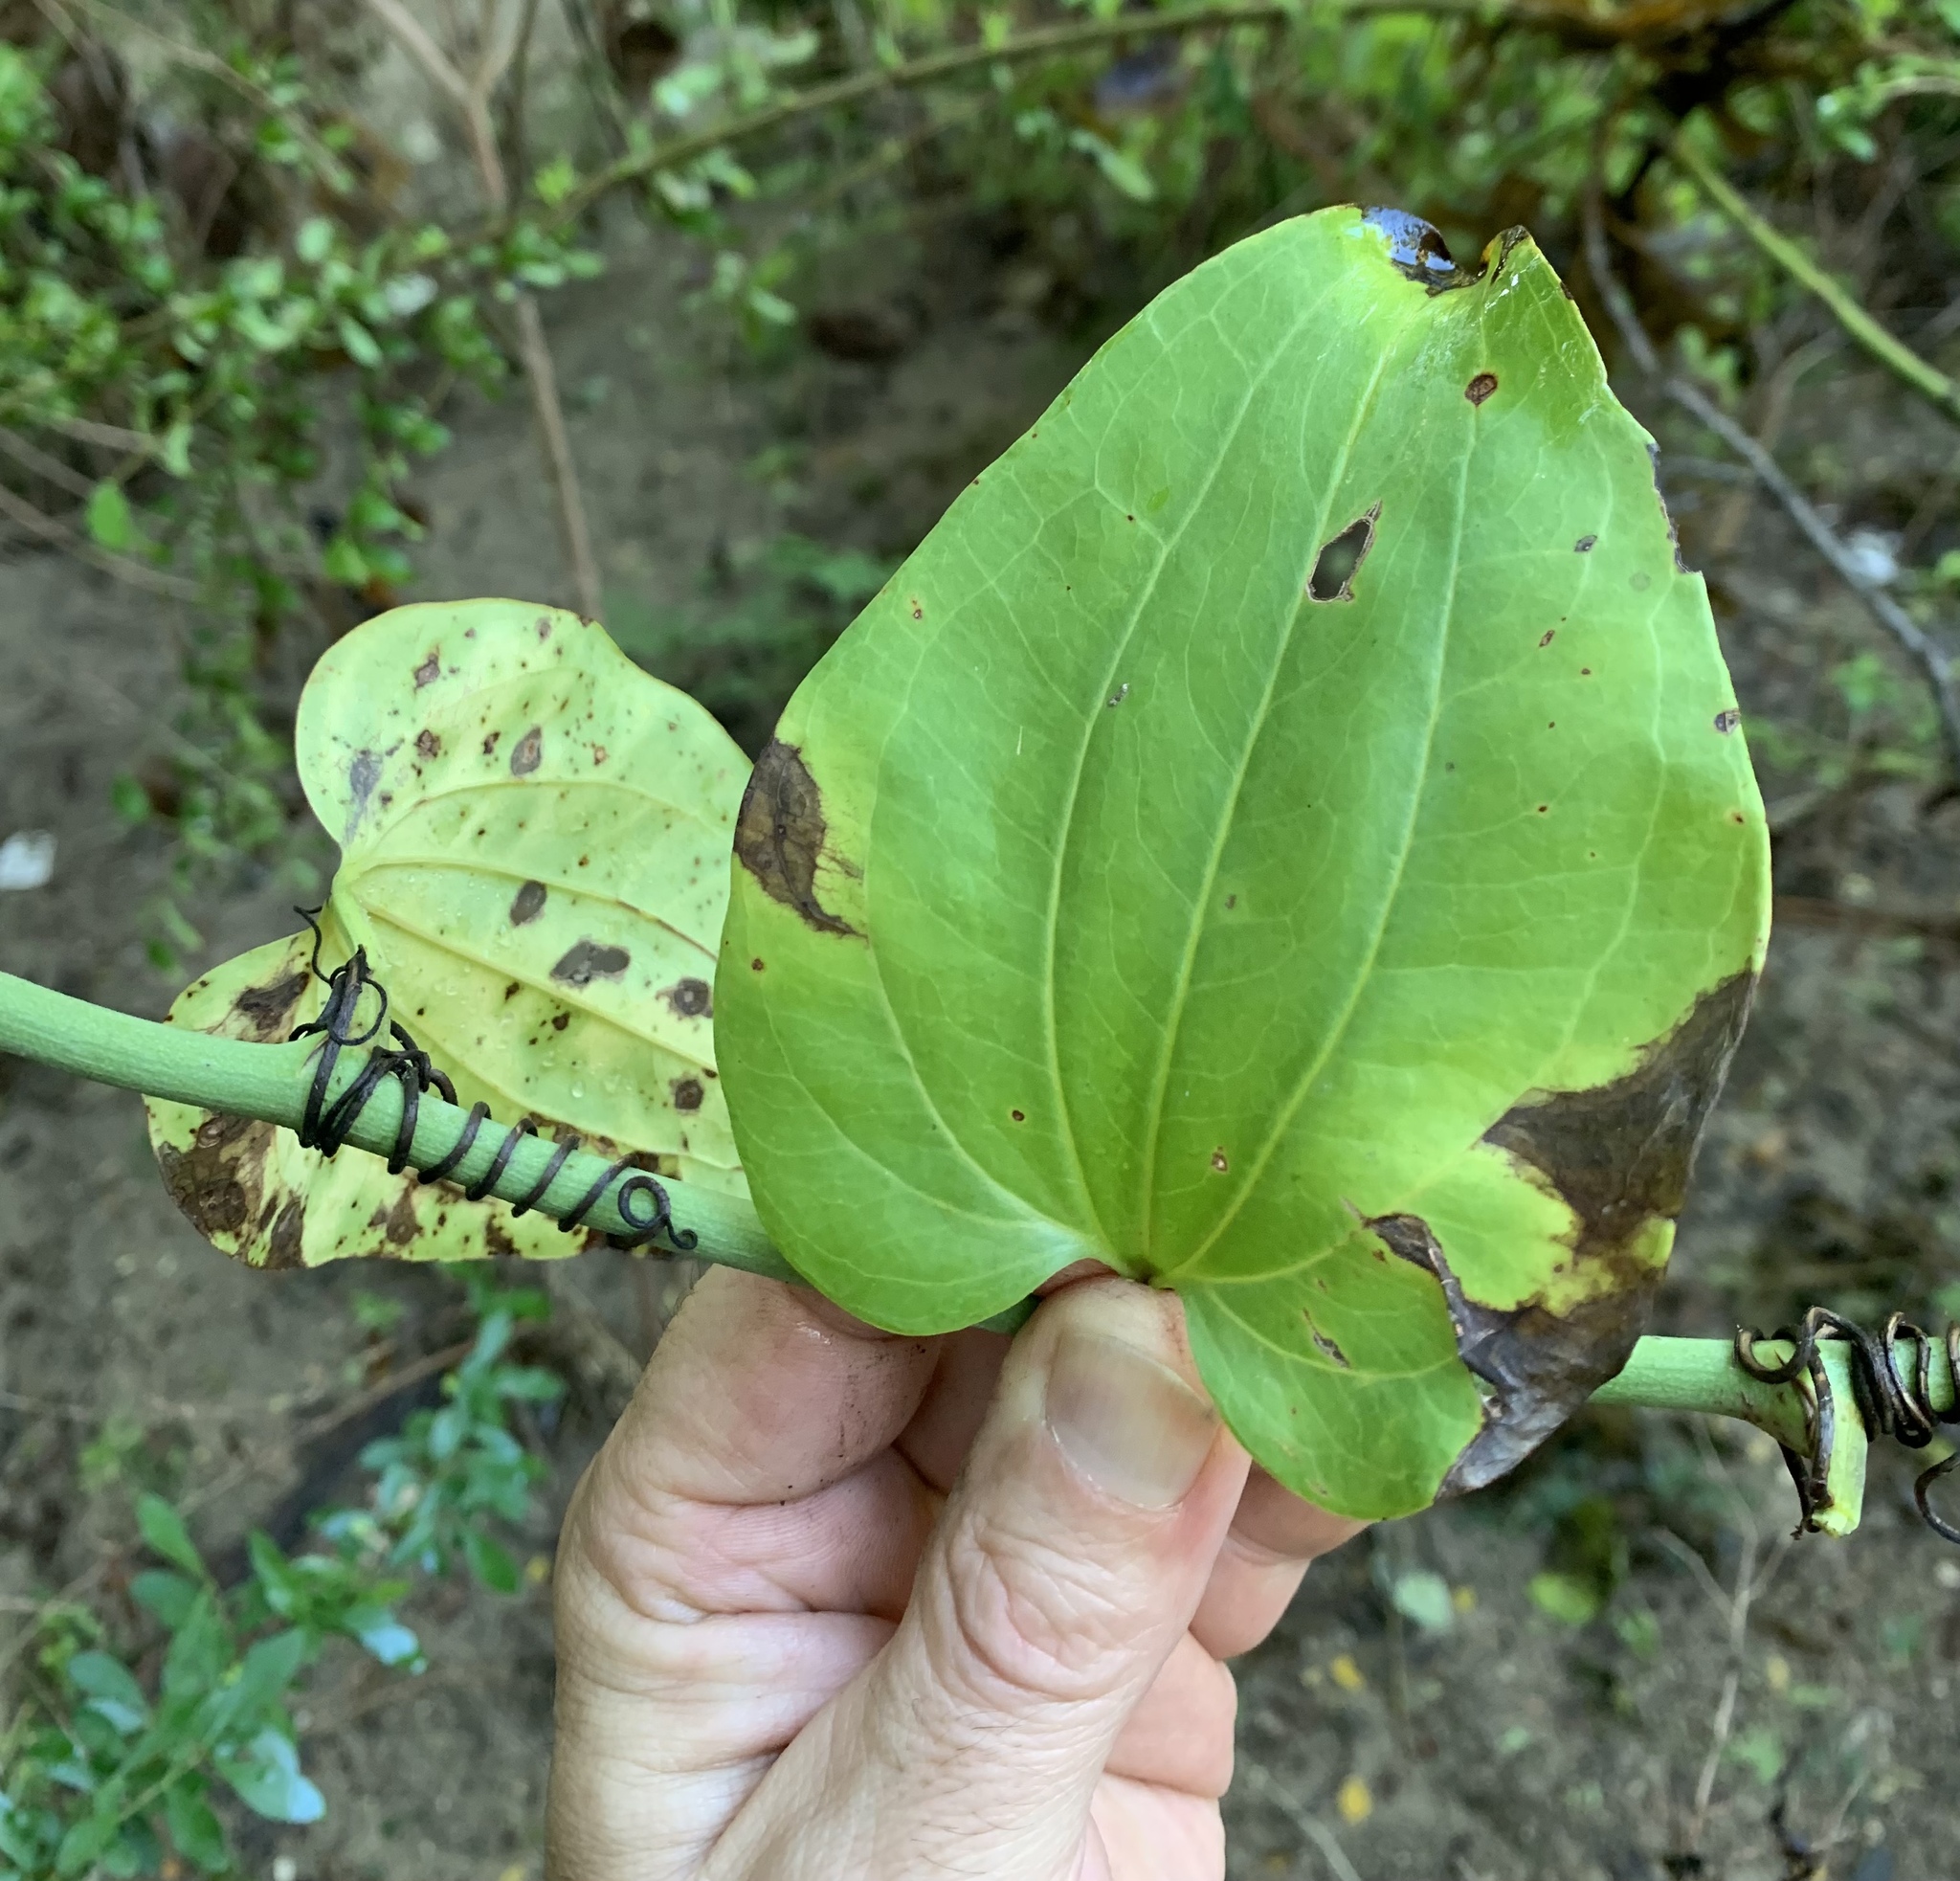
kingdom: Plantae
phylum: Tracheophyta
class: Liliopsida
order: Liliales
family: Smilacaceae
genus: Smilax
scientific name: Smilax tamnoides
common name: Hellfetter
